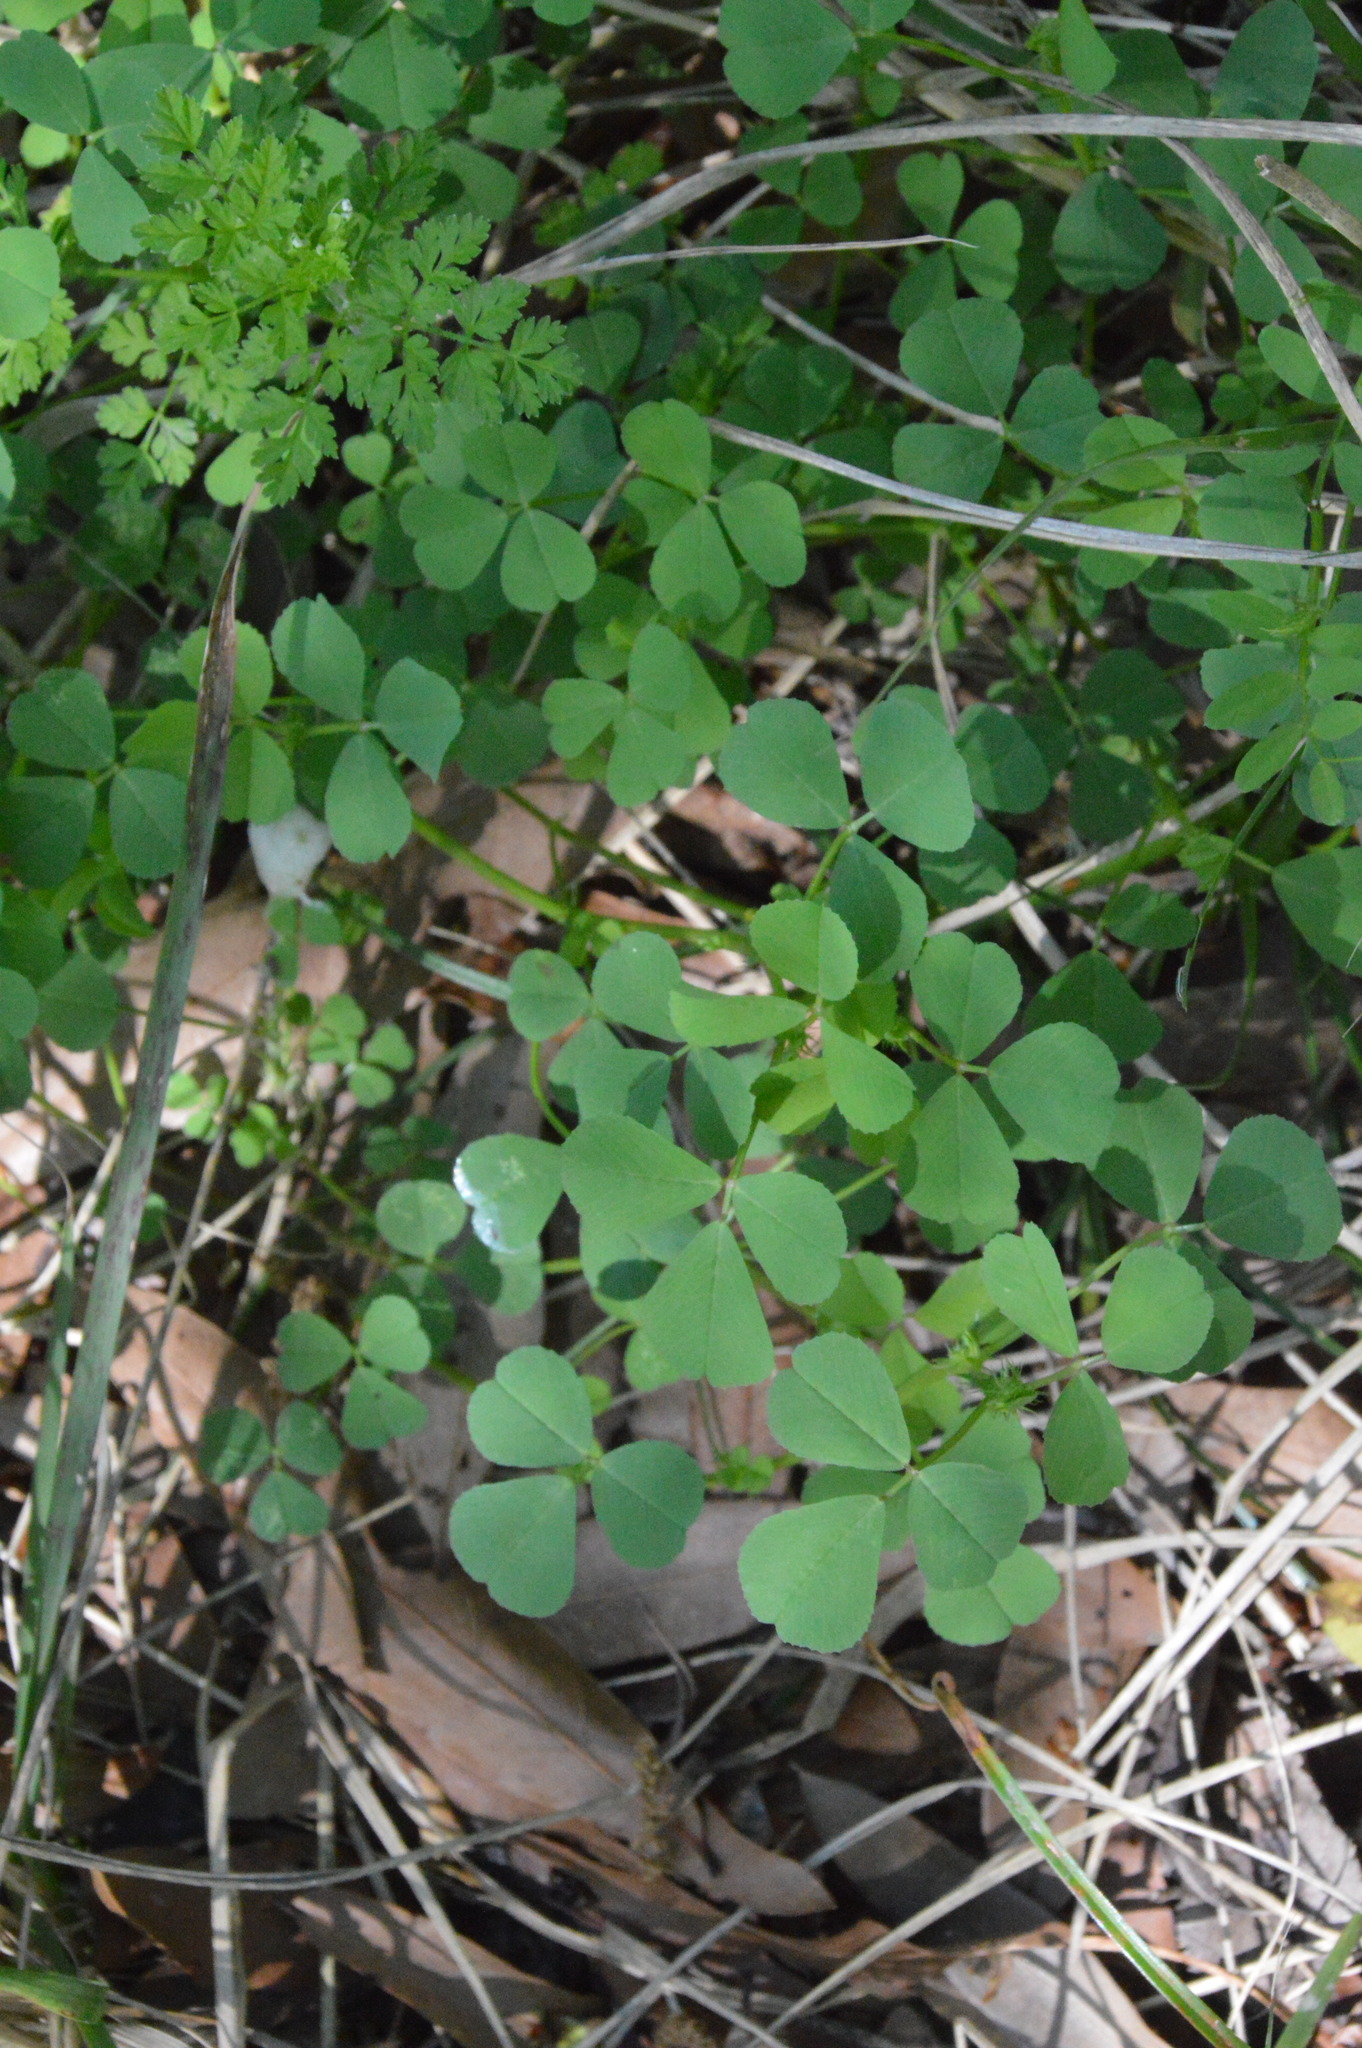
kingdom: Plantae
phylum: Tracheophyta
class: Magnoliopsida
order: Fabales
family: Fabaceae
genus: Medicago
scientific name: Medicago polymorpha
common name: Burclover
